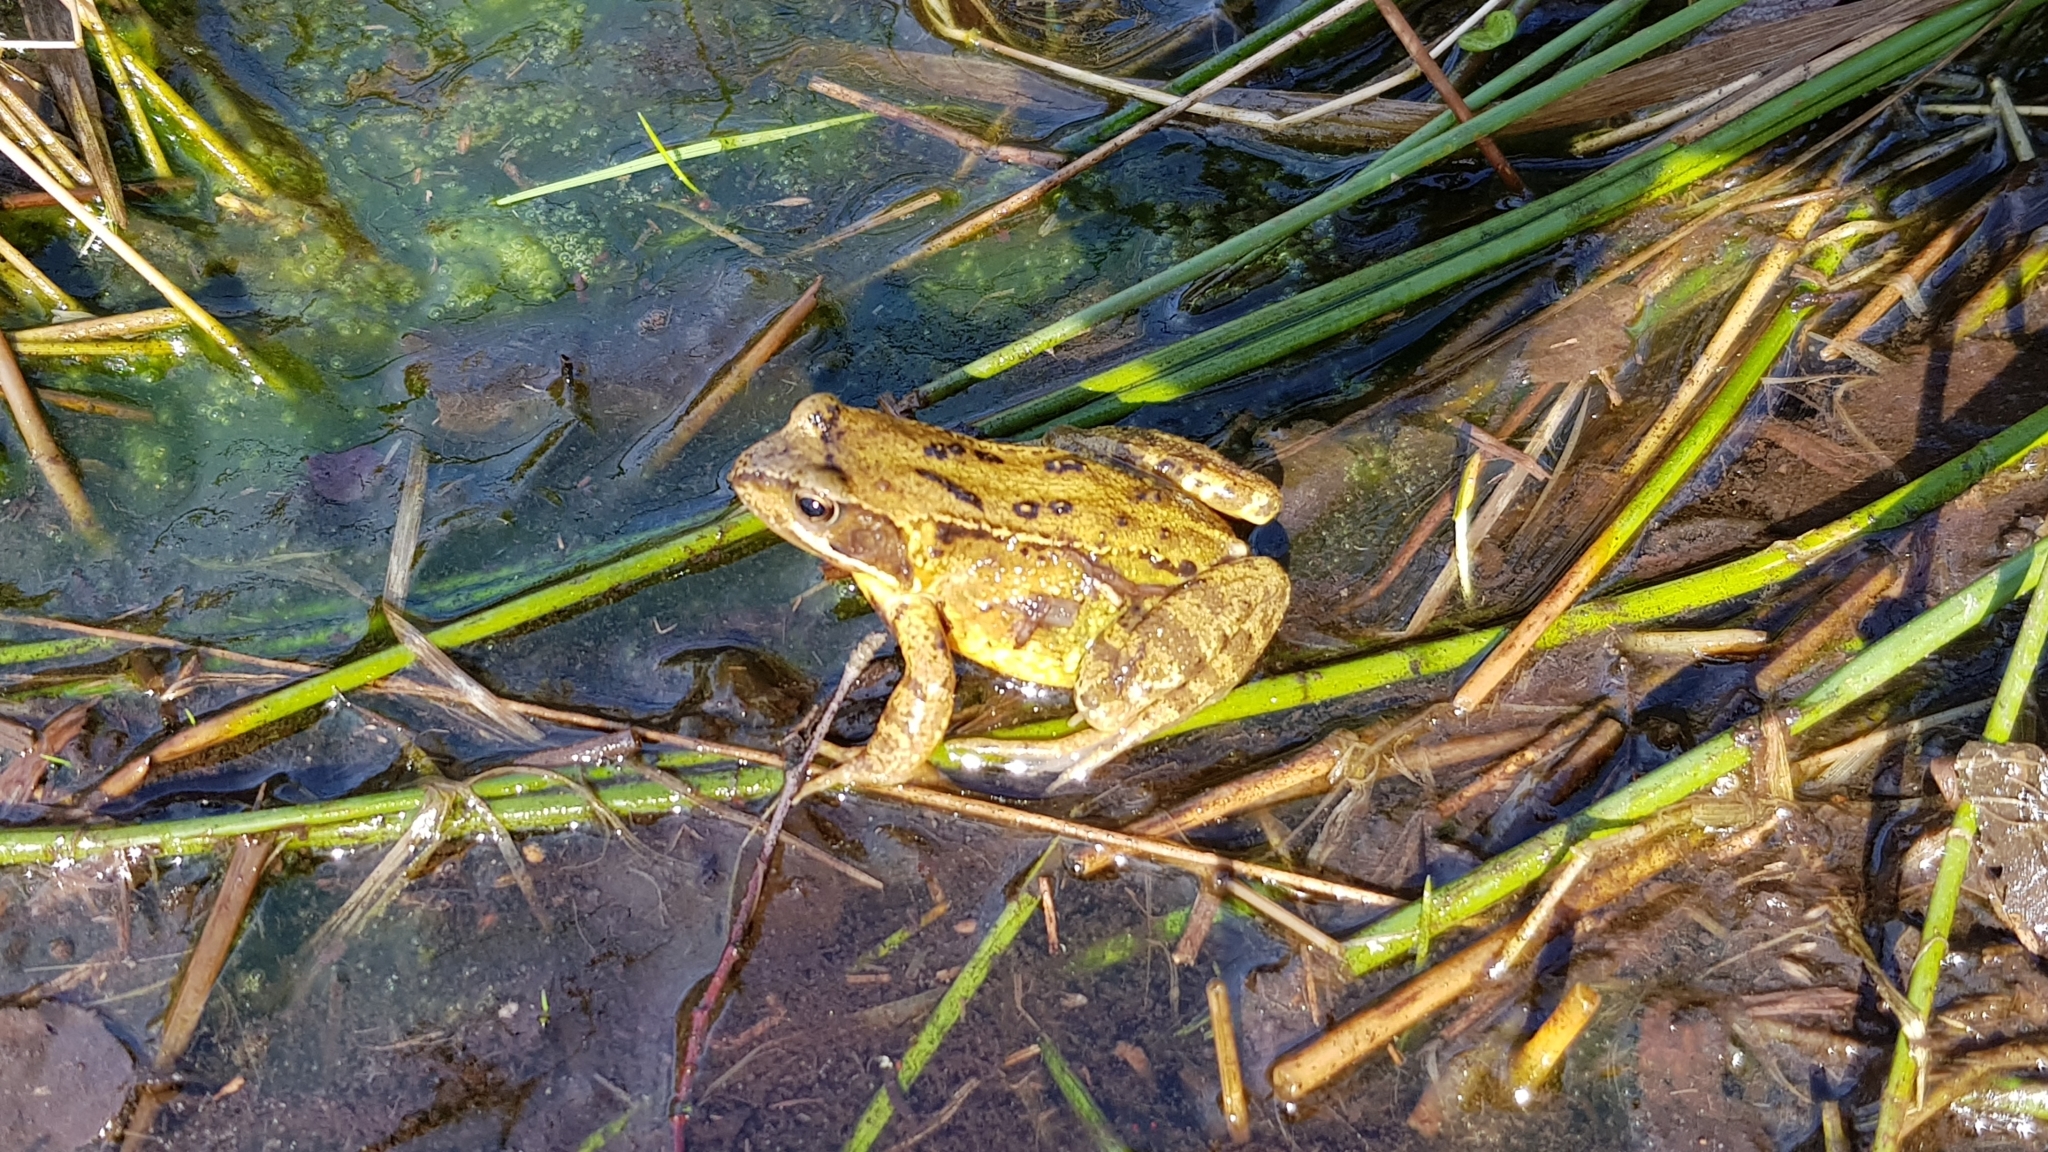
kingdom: Animalia
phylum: Chordata
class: Amphibia
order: Anura
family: Ranidae
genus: Rana
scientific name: Rana temporaria
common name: Common frog
